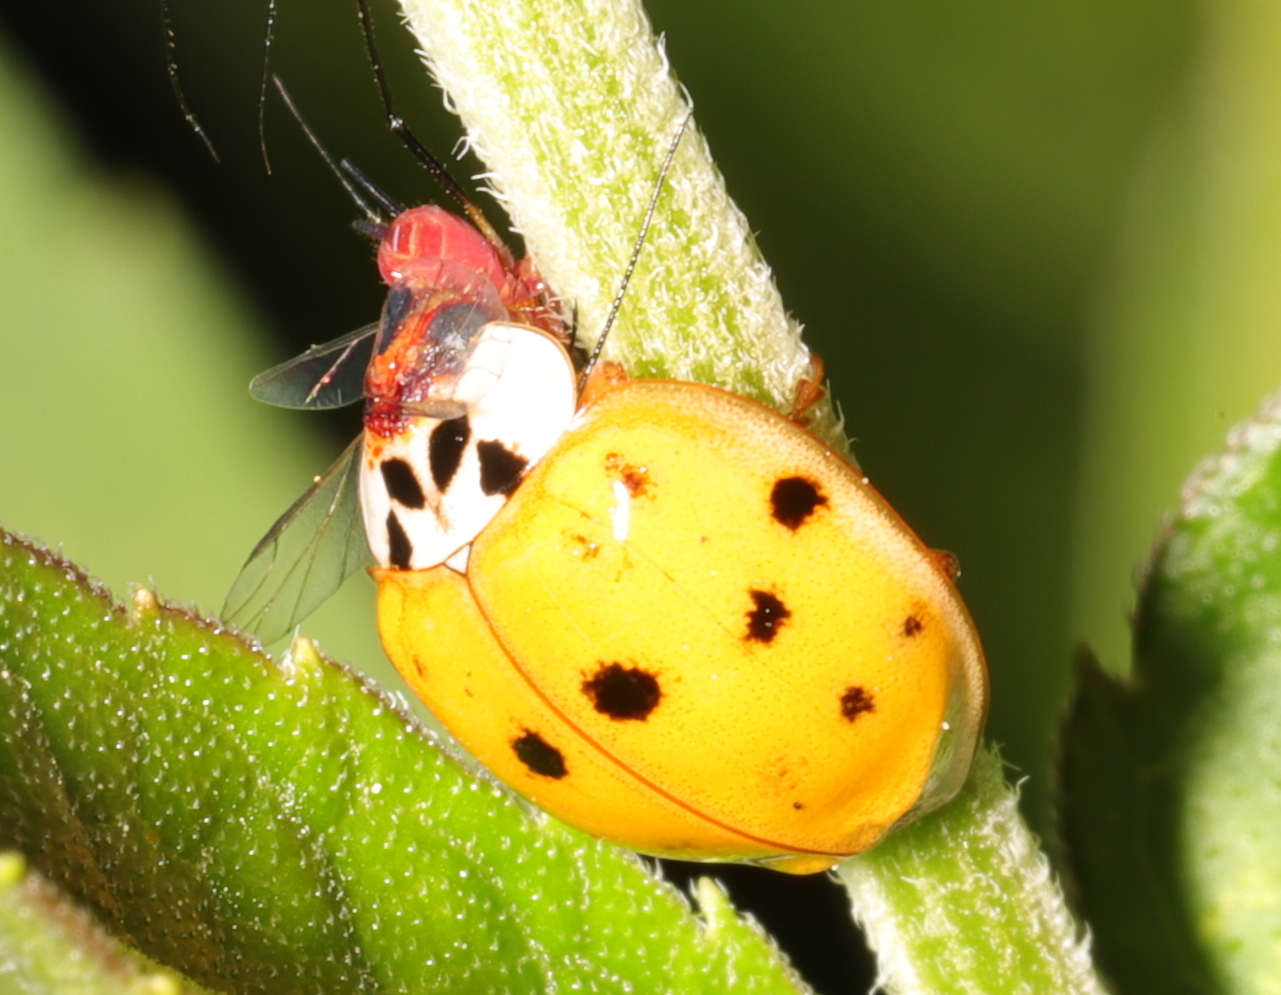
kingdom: Animalia
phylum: Arthropoda
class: Insecta
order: Coleoptera
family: Coccinellidae
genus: Harmonia
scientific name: Harmonia axyridis
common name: Harlequin ladybird
